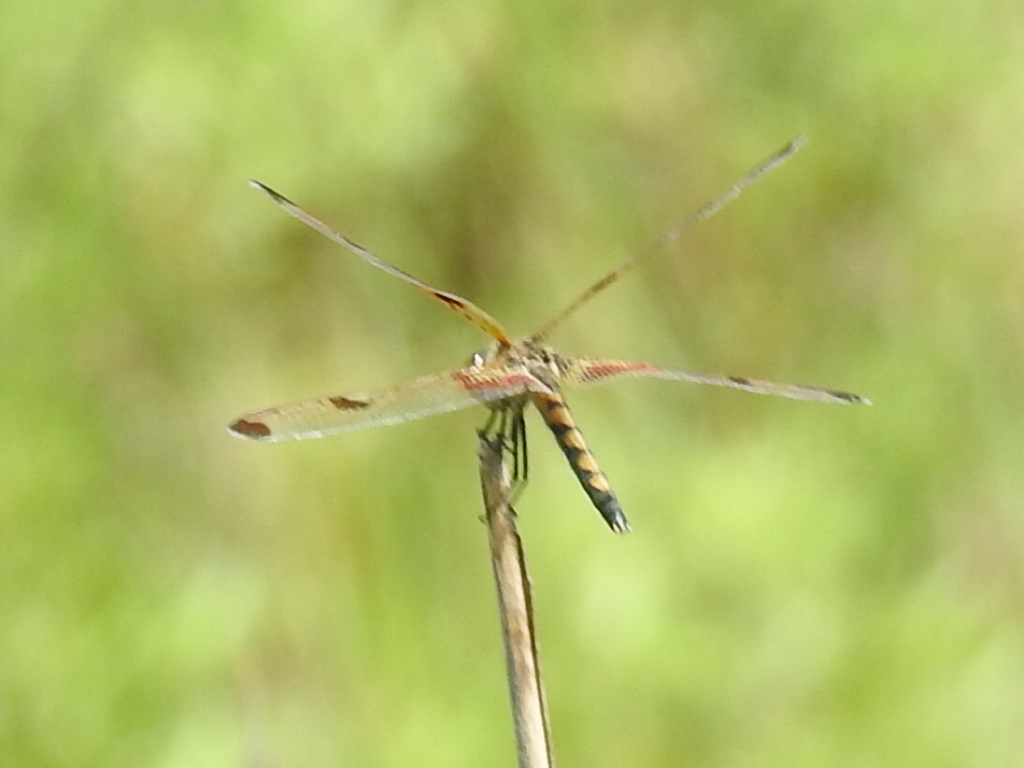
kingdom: Animalia
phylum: Arthropoda
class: Insecta
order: Odonata
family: Libellulidae
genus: Celithemis
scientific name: Celithemis elisa
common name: Calico pennant
